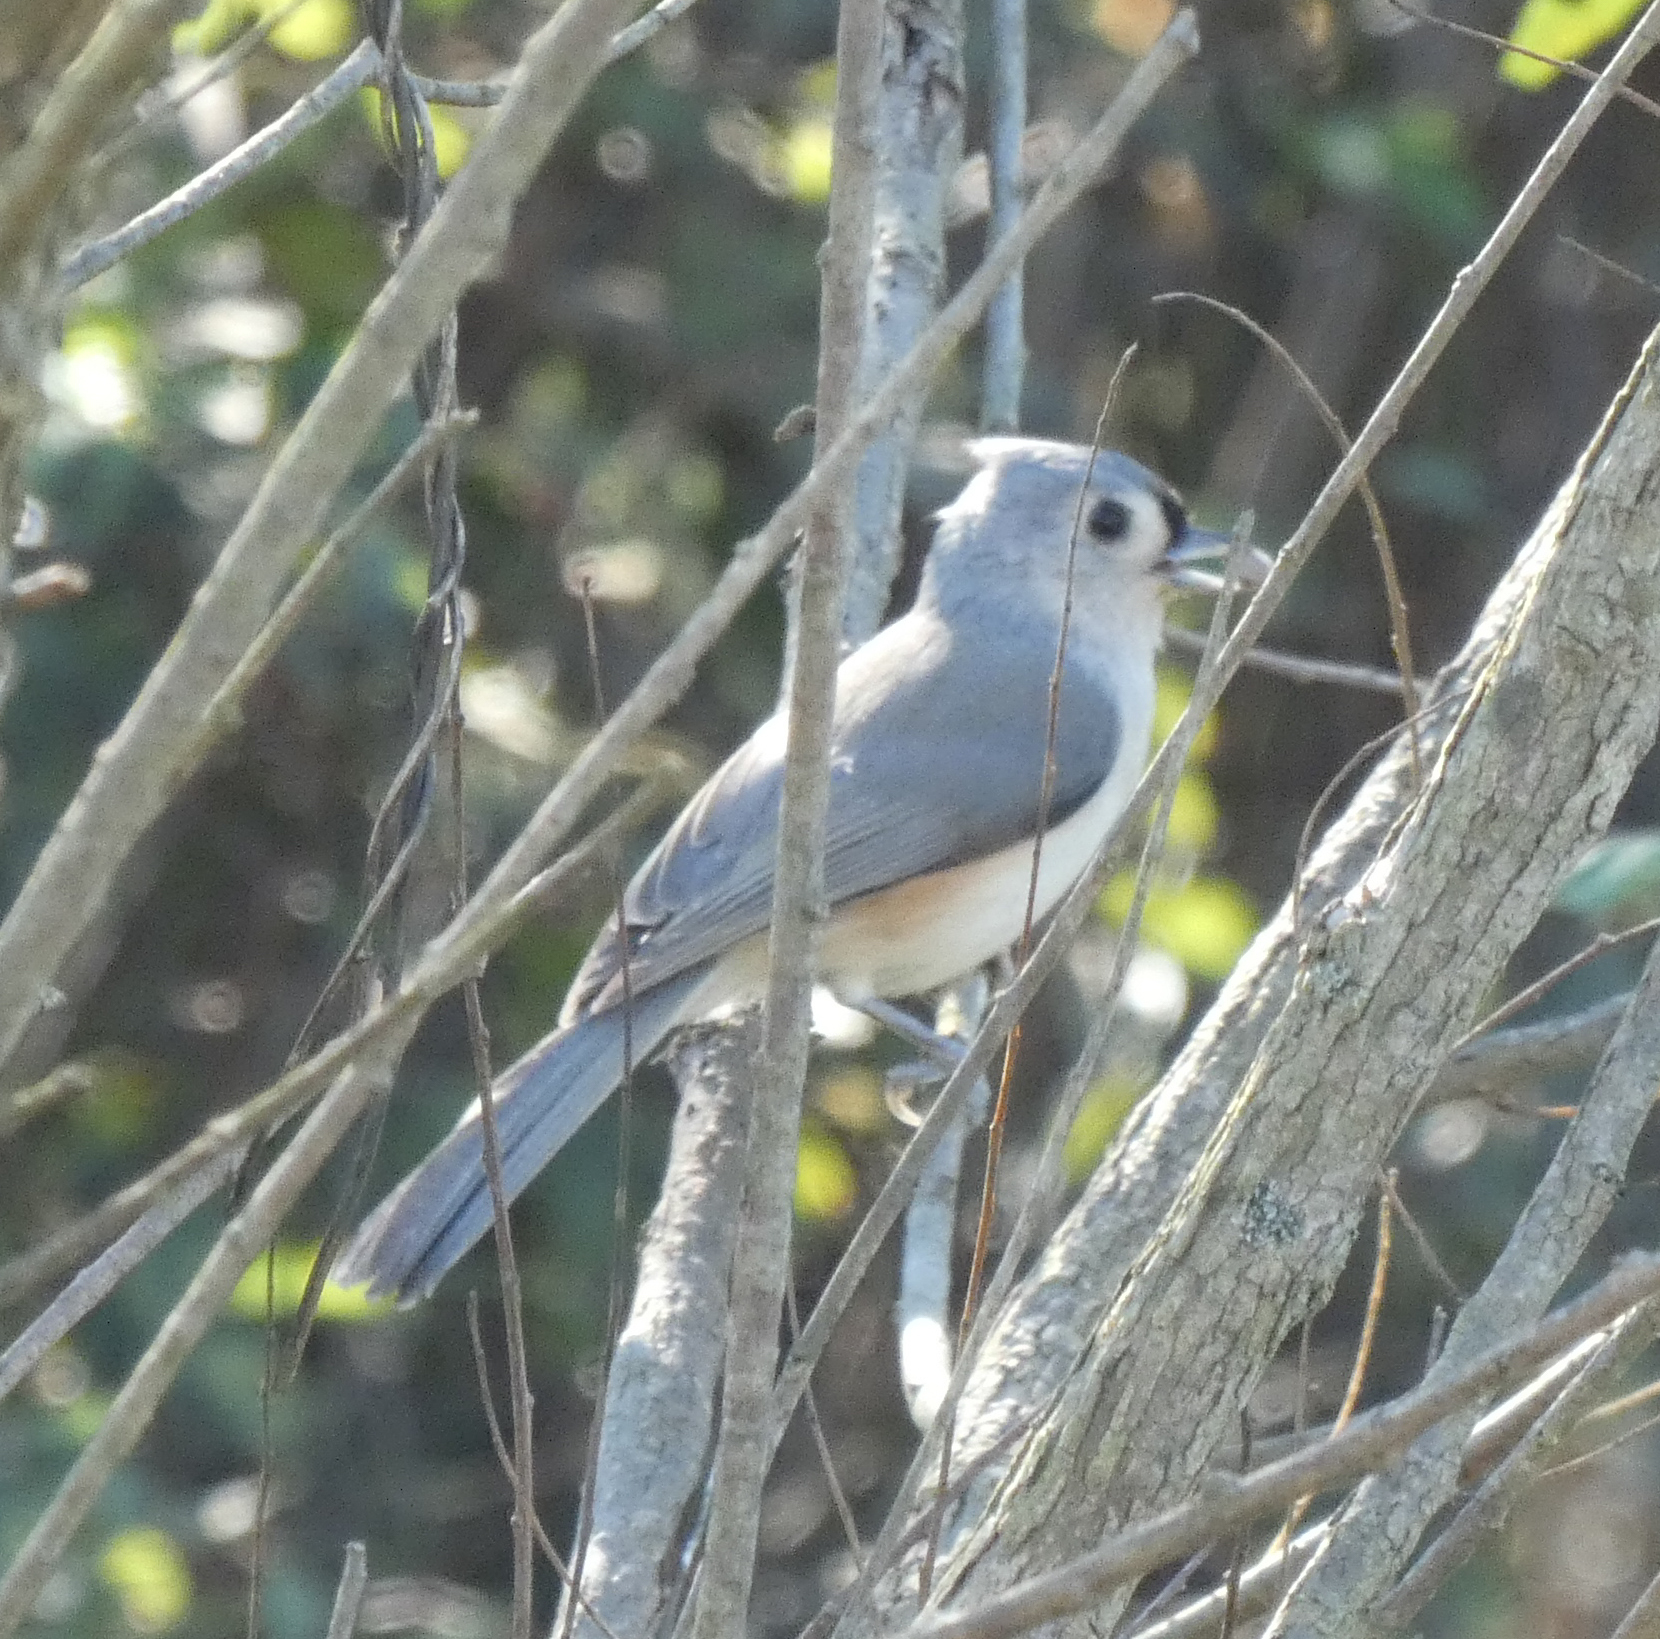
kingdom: Animalia
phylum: Chordata
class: Aves
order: Passeriformes
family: Paridae
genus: Baeolophus
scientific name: Baeolophus bicolor
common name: Tufted titmouse
